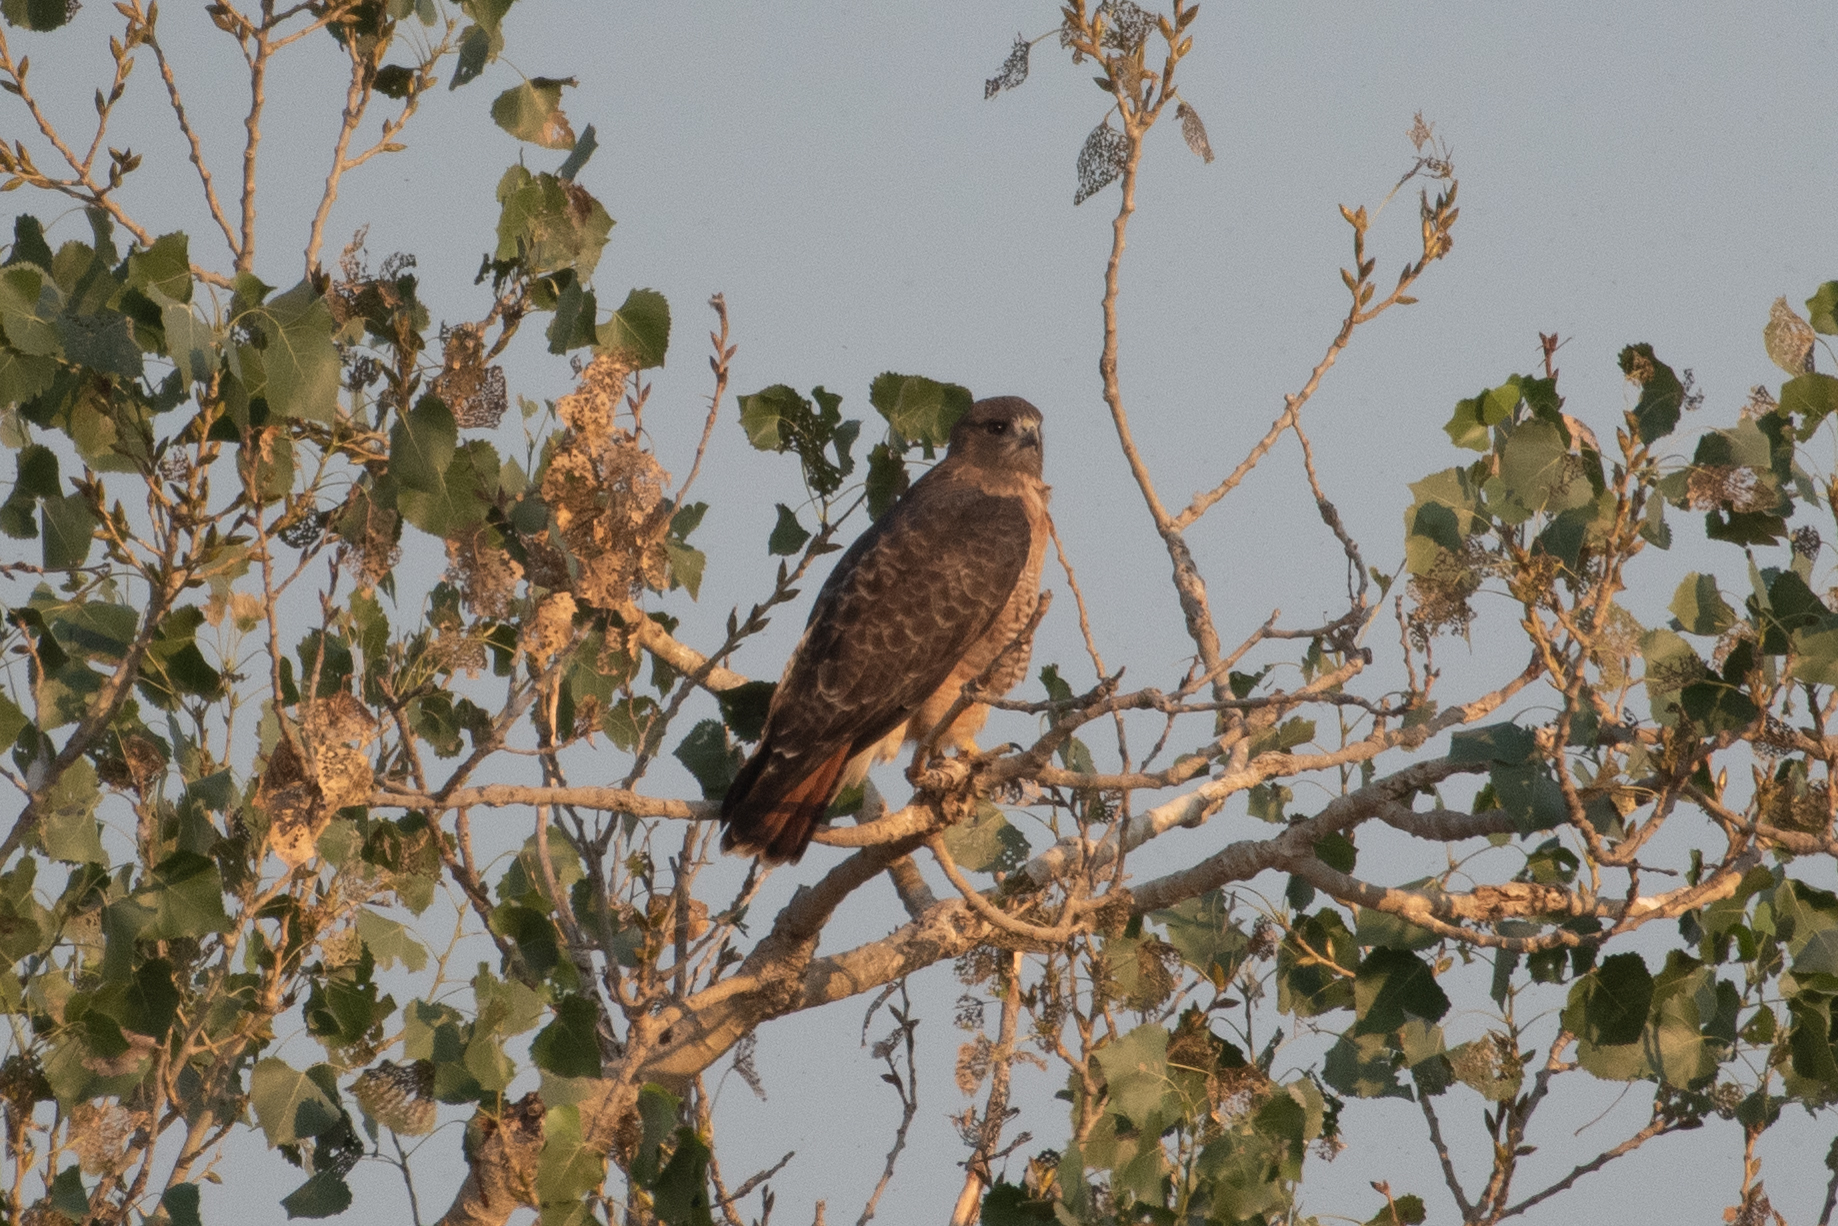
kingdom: Animalia
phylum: Chordata
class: Aves
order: Accipitriformes
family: Accipitridae
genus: Buteo
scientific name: Buteo jamaicensis
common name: Red-tailed hawk
